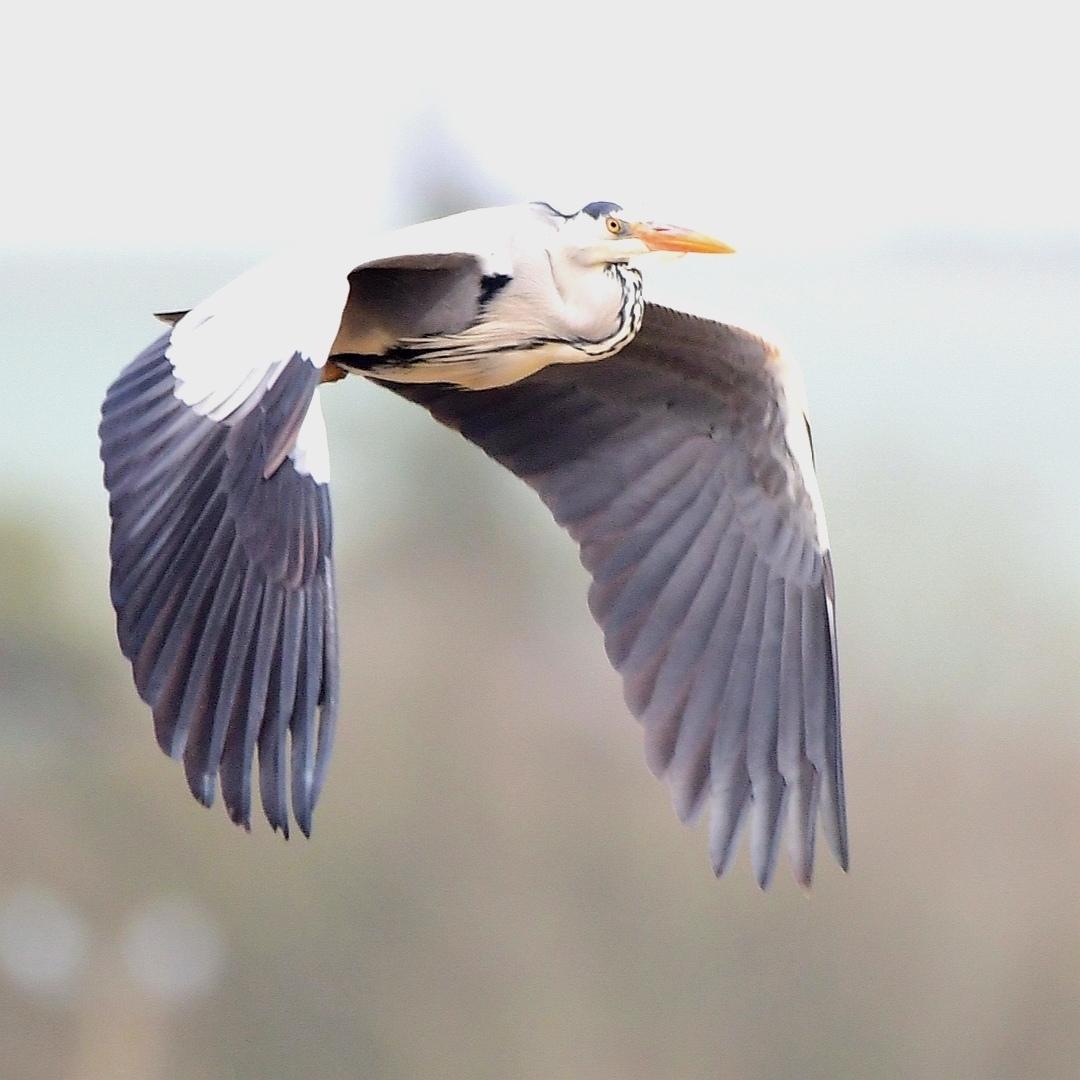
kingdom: Animalia
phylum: Chordata
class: Aves
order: Pelecaniformes
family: Ardeidae
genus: Ardea
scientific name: Ardea cinerea
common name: Grey heron
